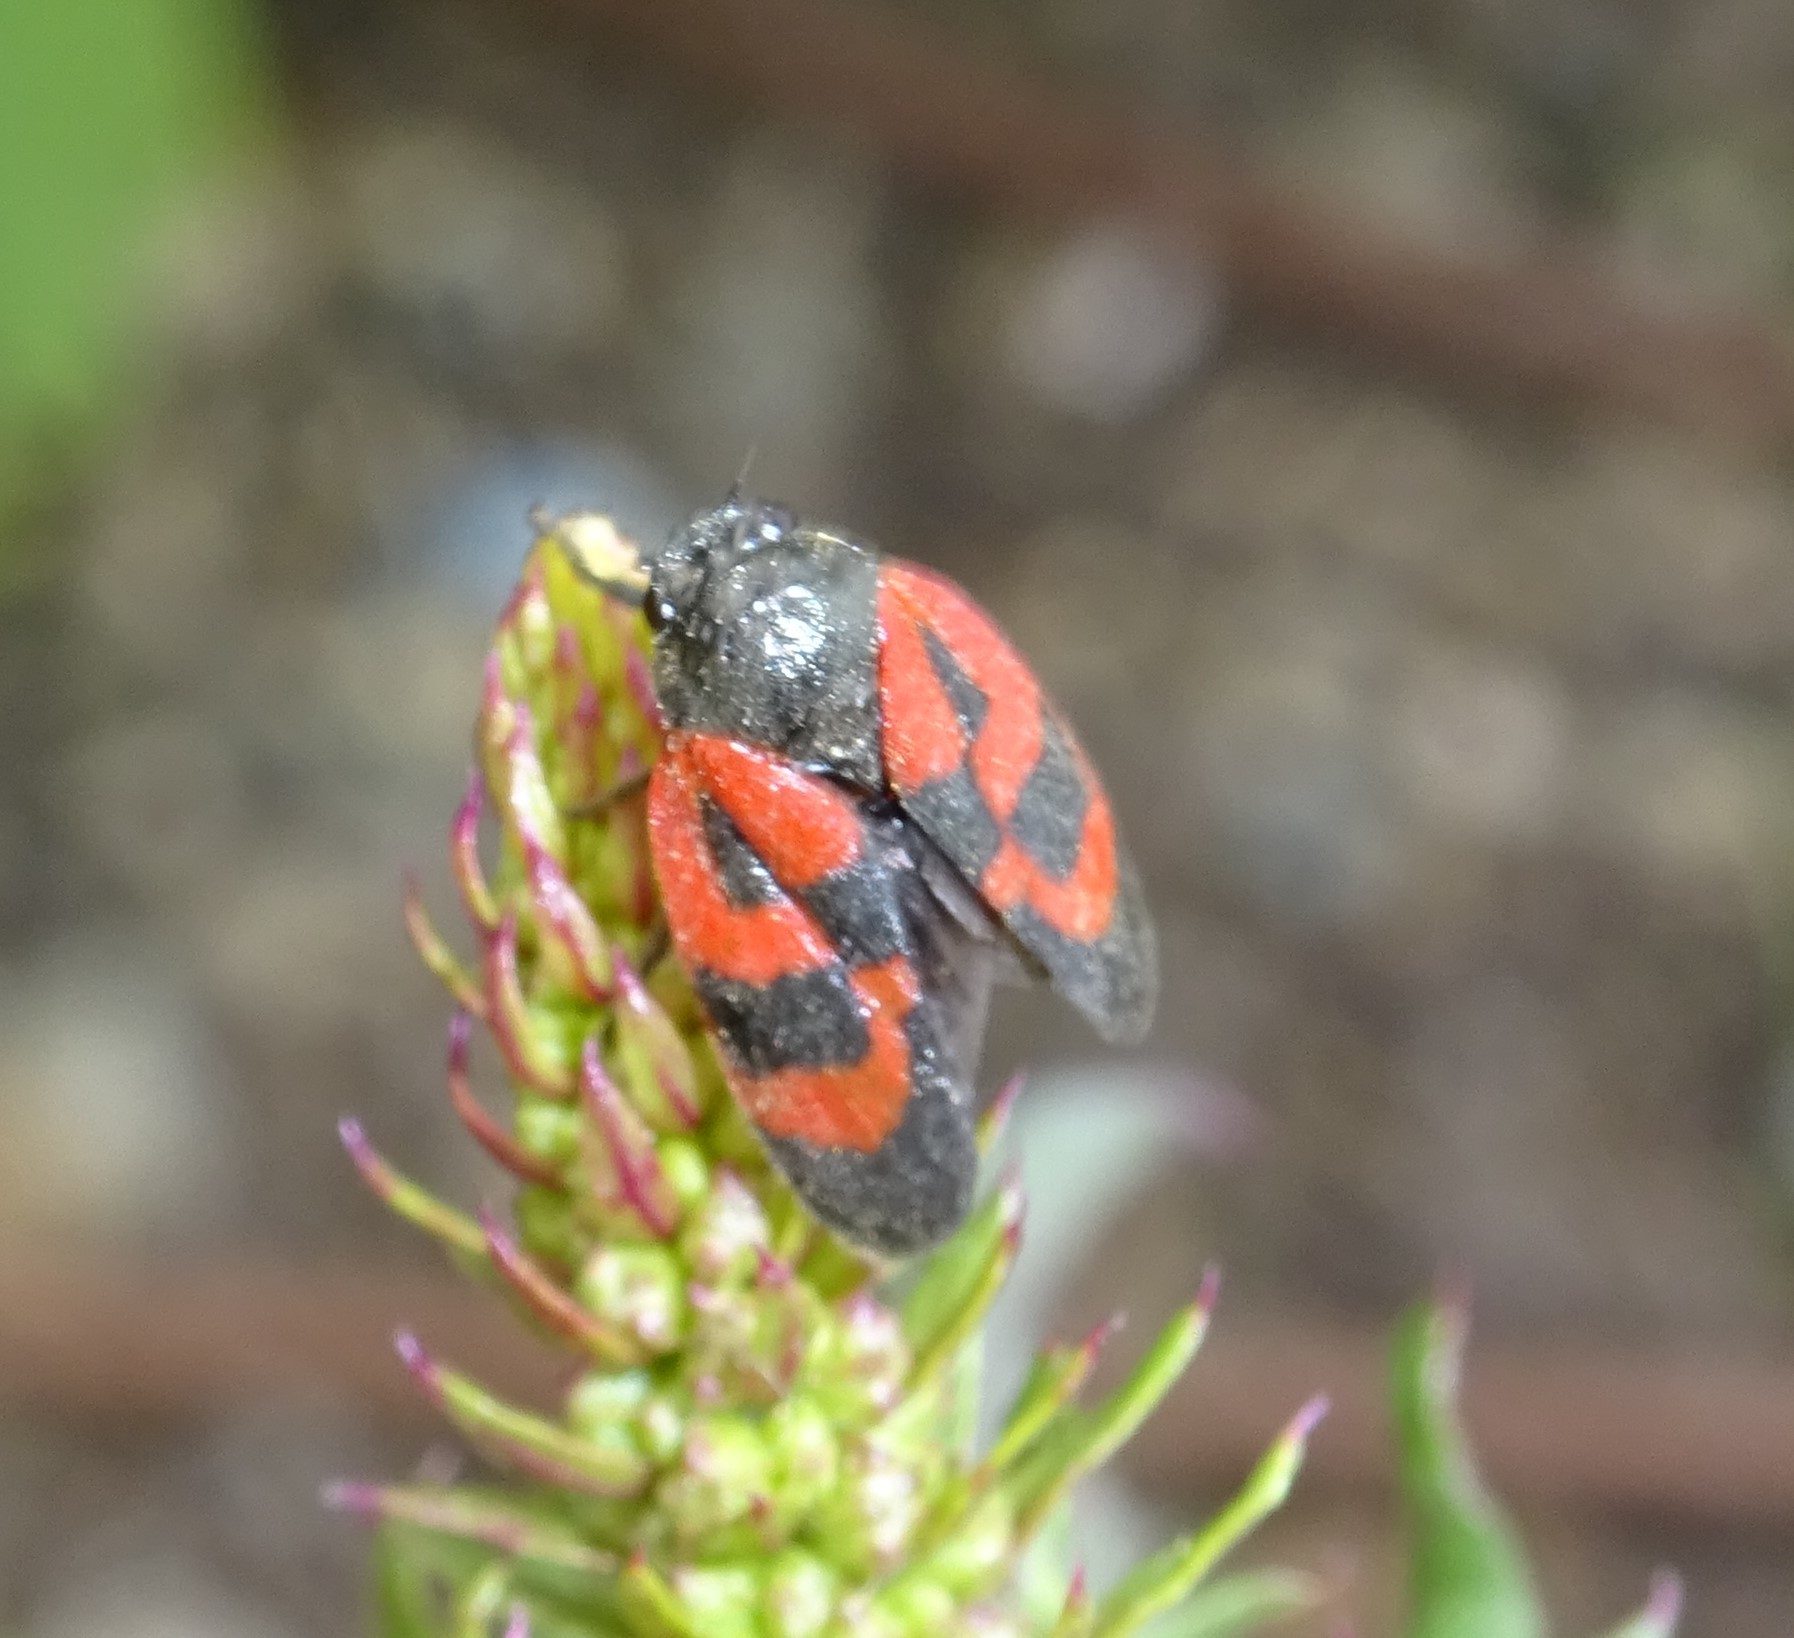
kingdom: Animalia
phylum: Arthropoda
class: Insecta
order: Hemiptera
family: Cercopidae
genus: Haematoloma
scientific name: Haematoloma dorsata
